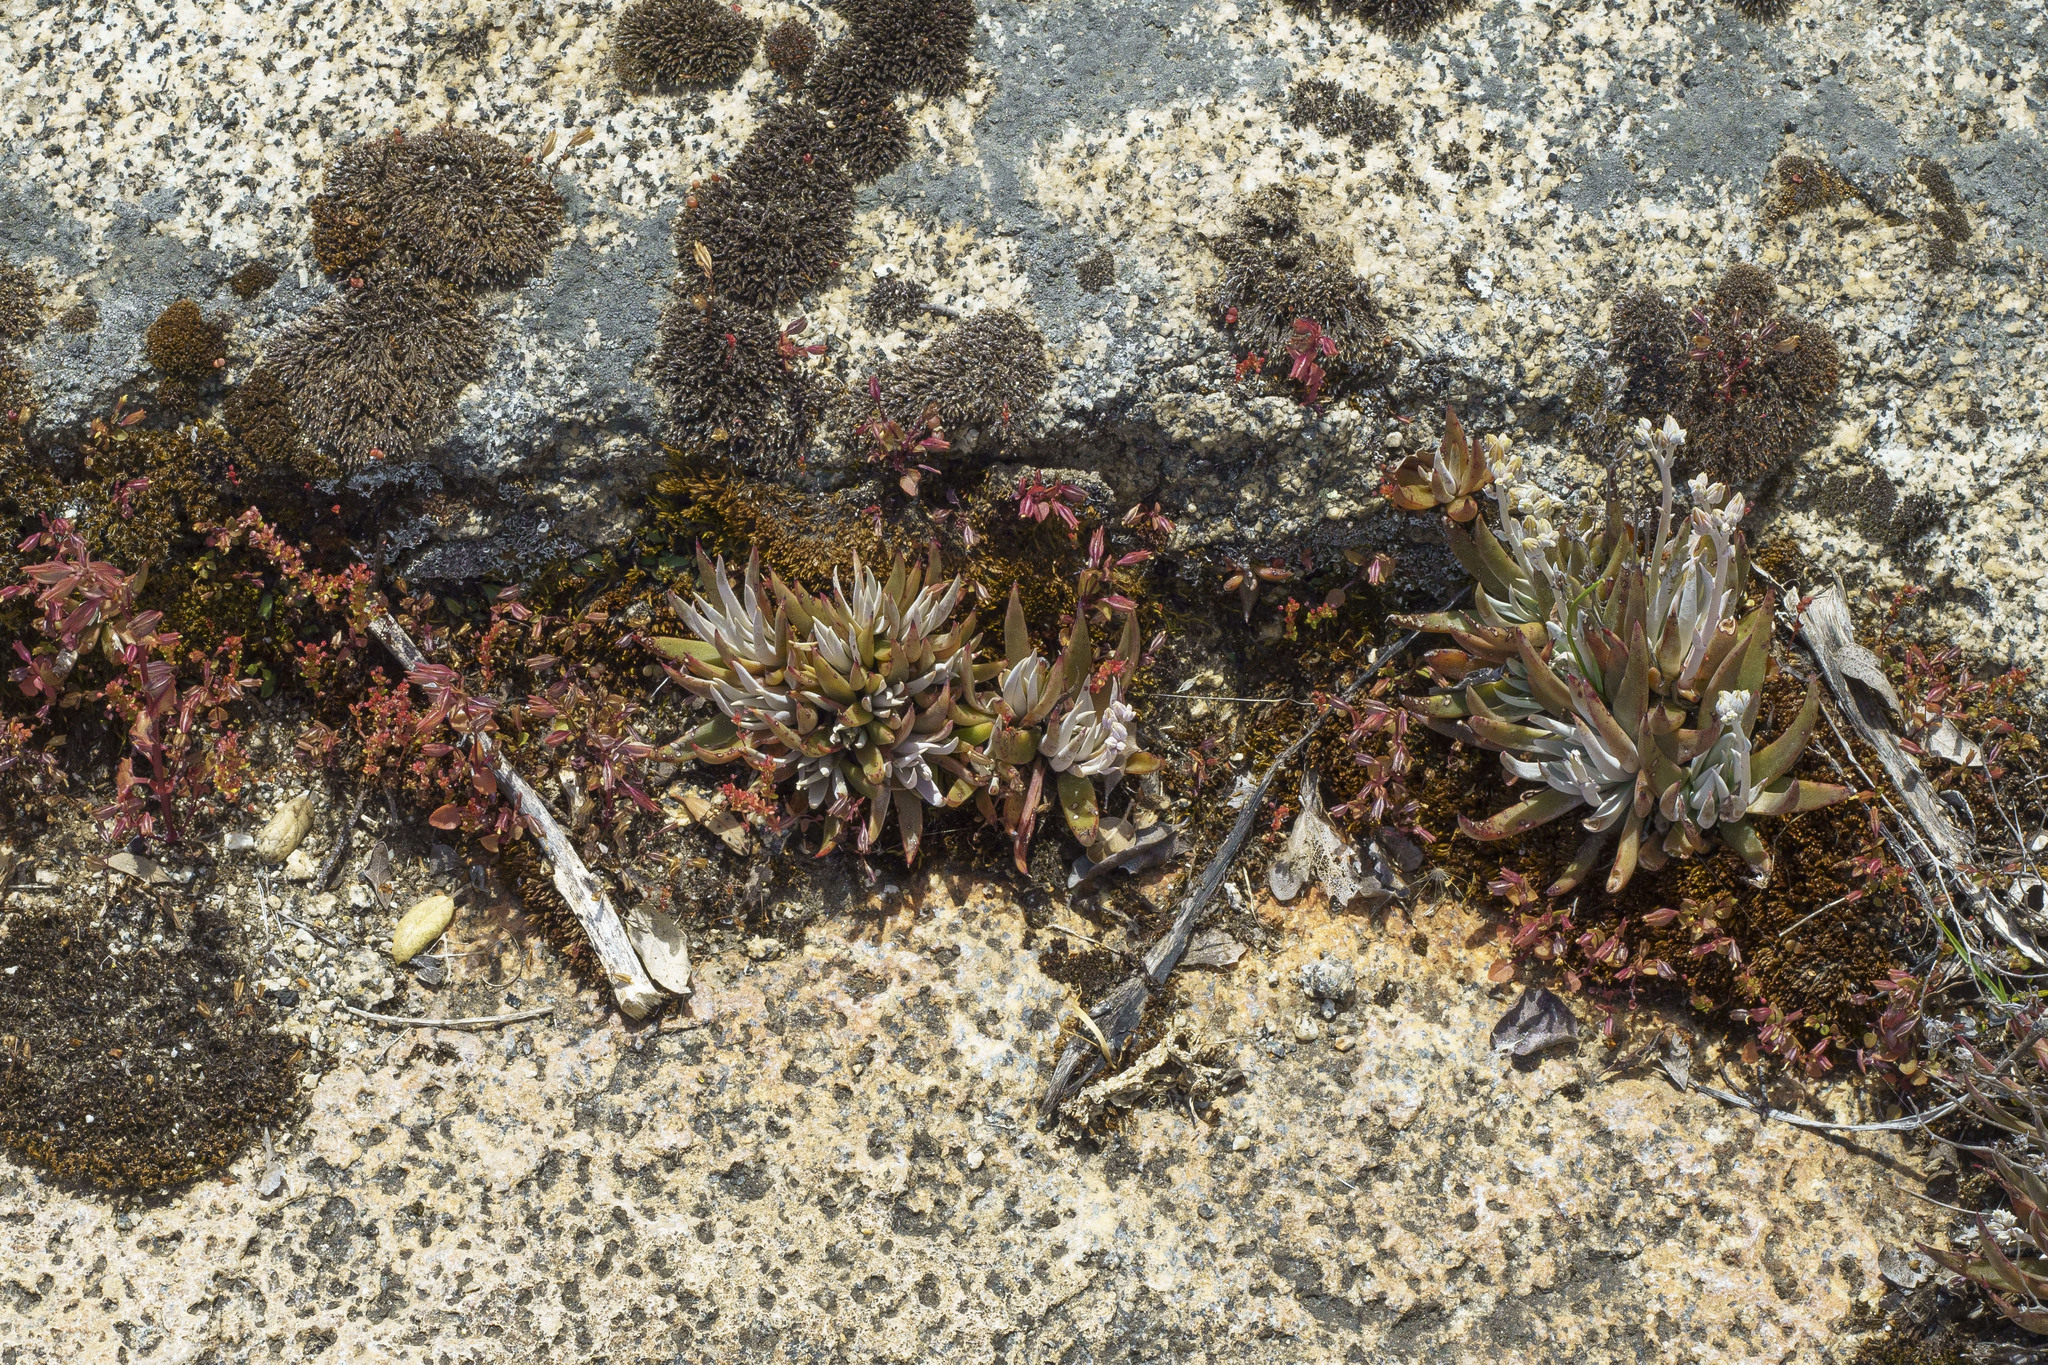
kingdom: Plantae
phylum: Tracheophyta
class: Magnoliopsida
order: Saxifragales
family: Crassulaceae
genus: Dudleya
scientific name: Dudleya abramsii
